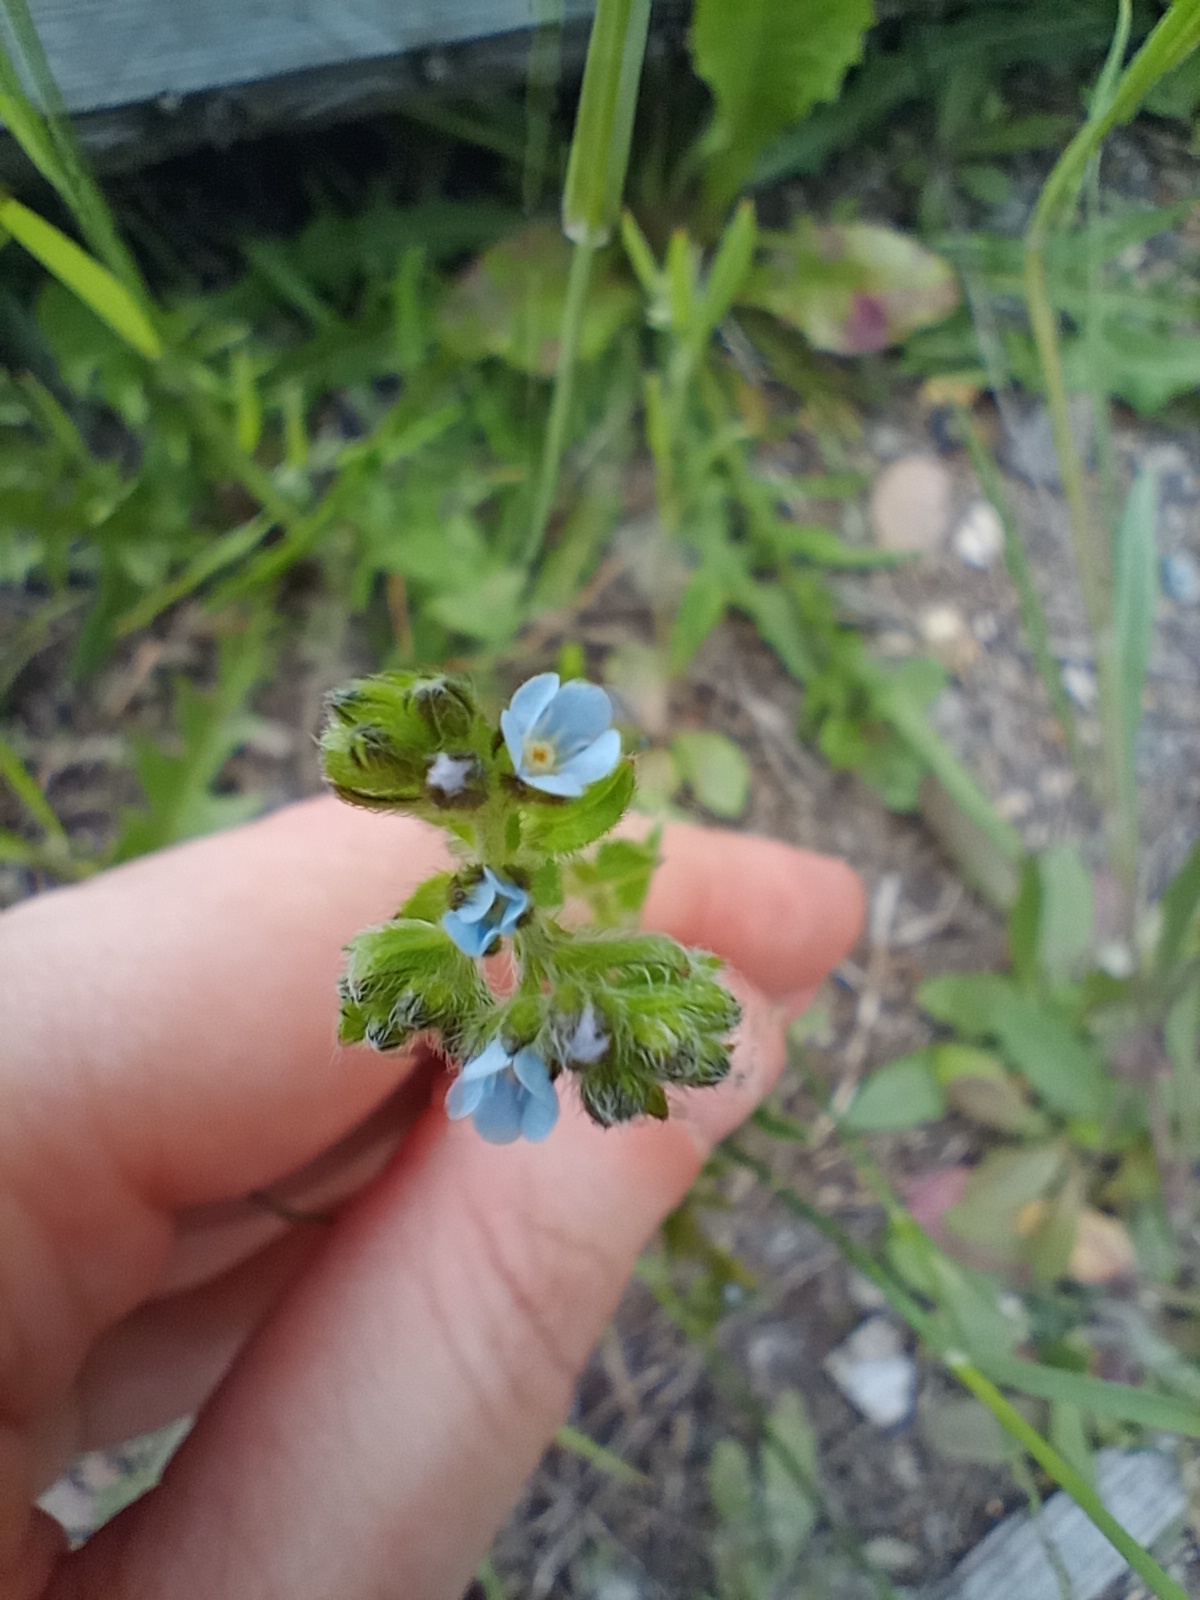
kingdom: Plantae
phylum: Tracheophyta
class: Magnoliopsida
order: Boraginales
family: Boraginaceae
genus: Lappula
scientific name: Lappula squarrosa
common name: European stickseed
